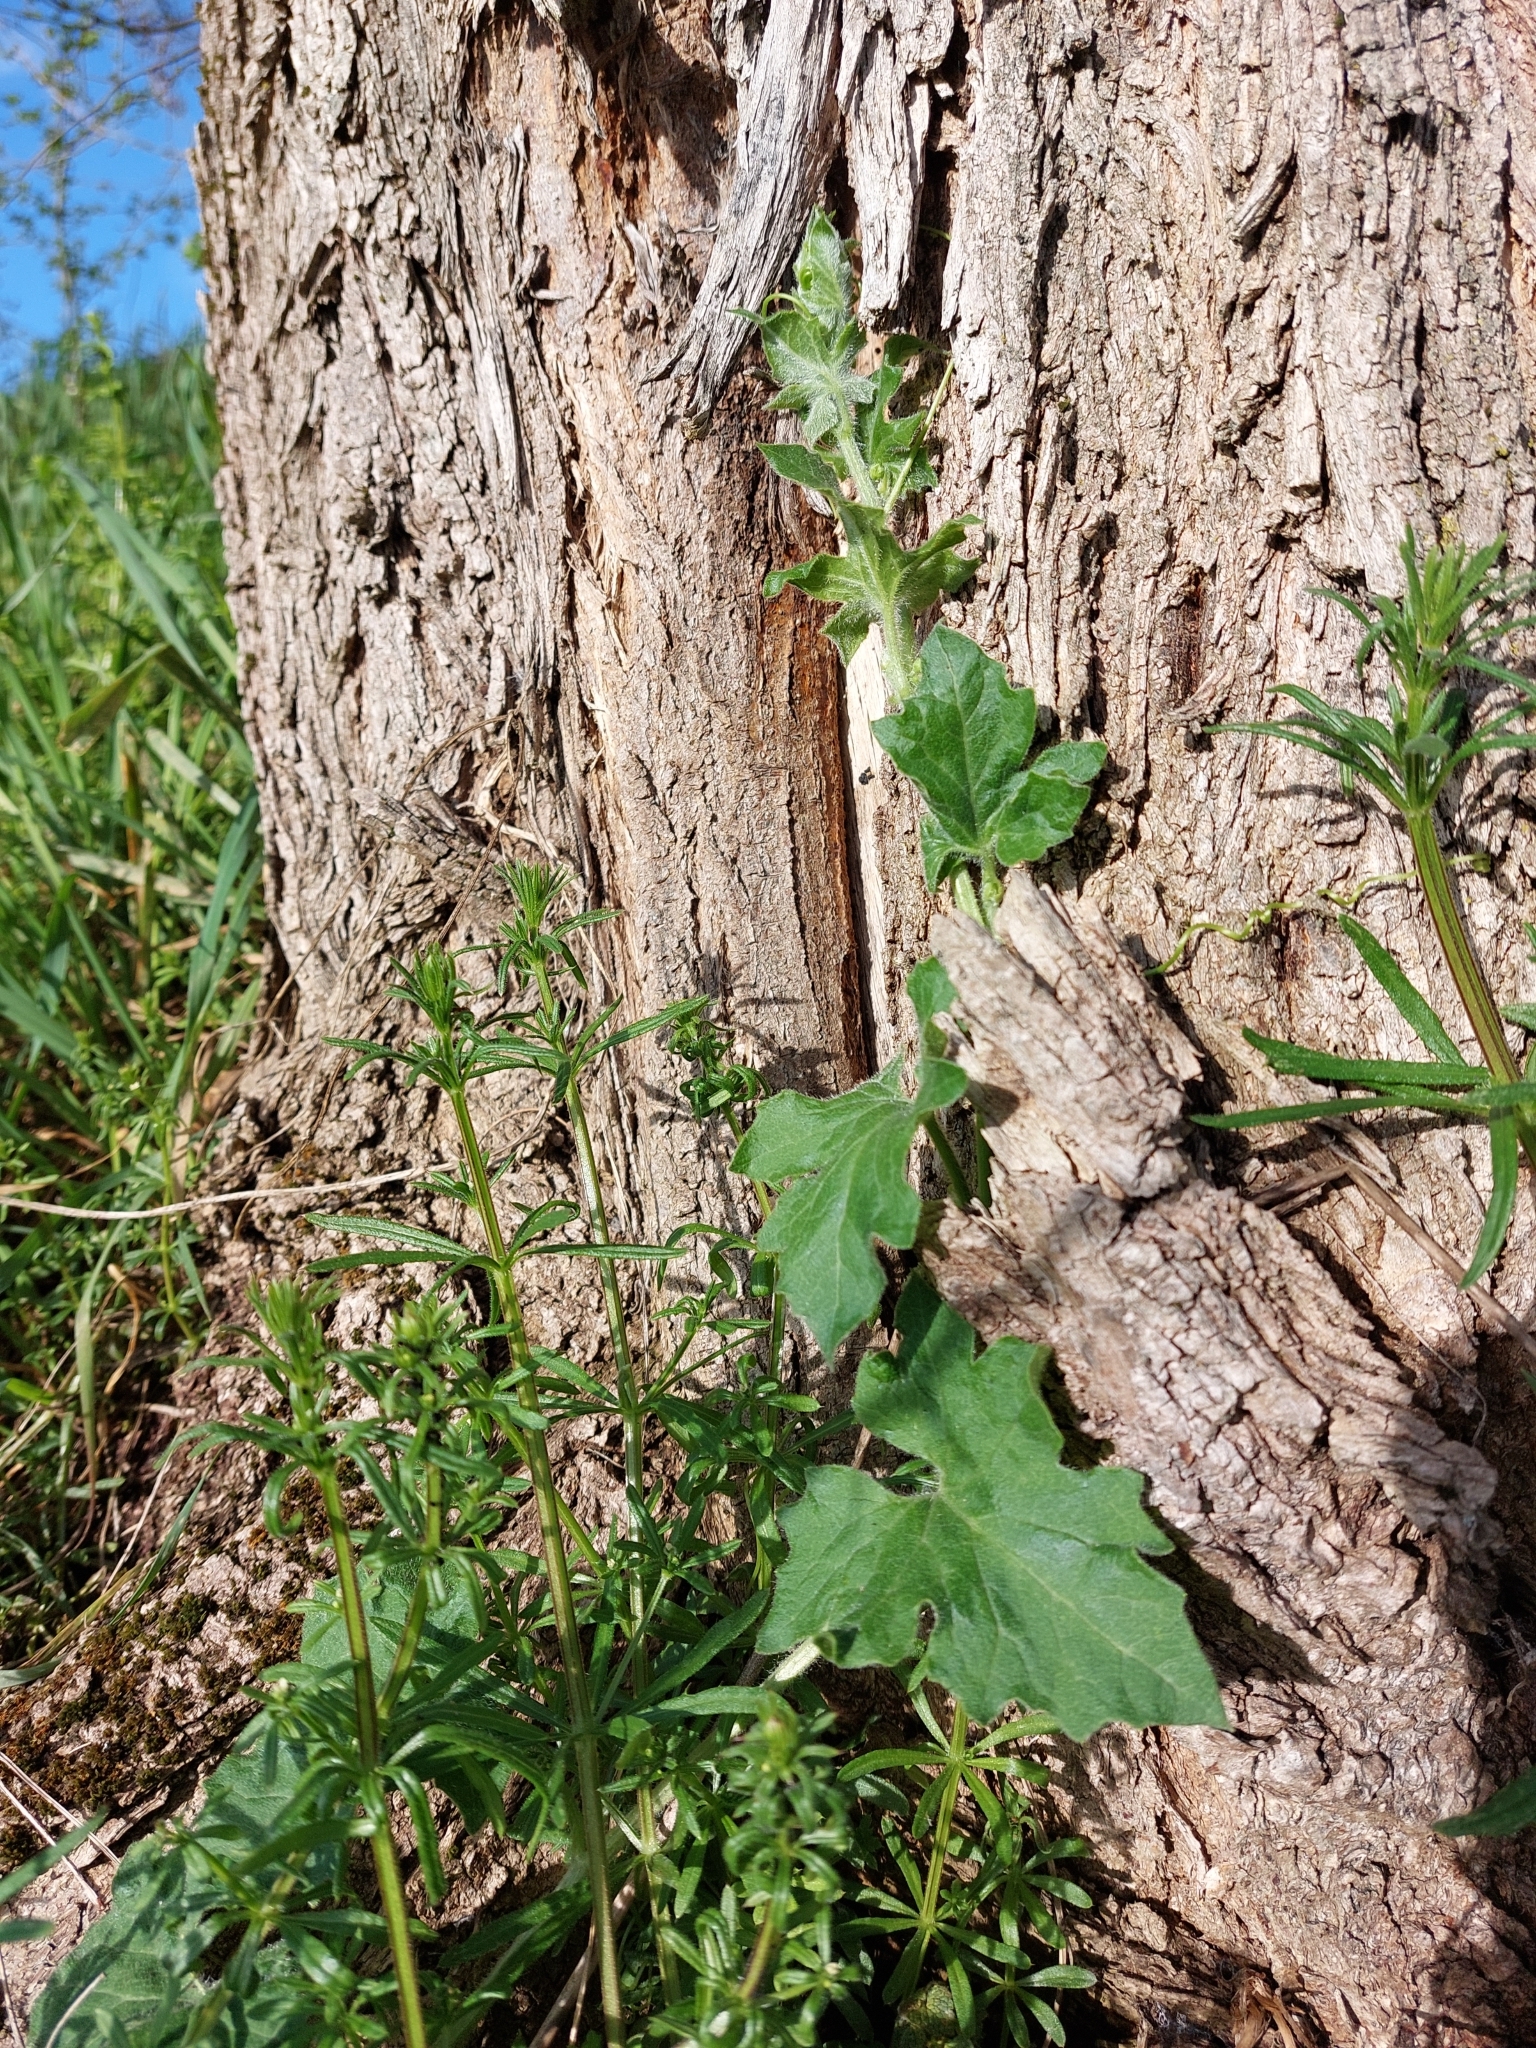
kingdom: Plantae
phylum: Tracheophyta
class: Magnoliopsida
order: Cucurbitales
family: Cucurbitaceae
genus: Bryonia
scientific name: Bryonia cretica
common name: Cretan bryony
